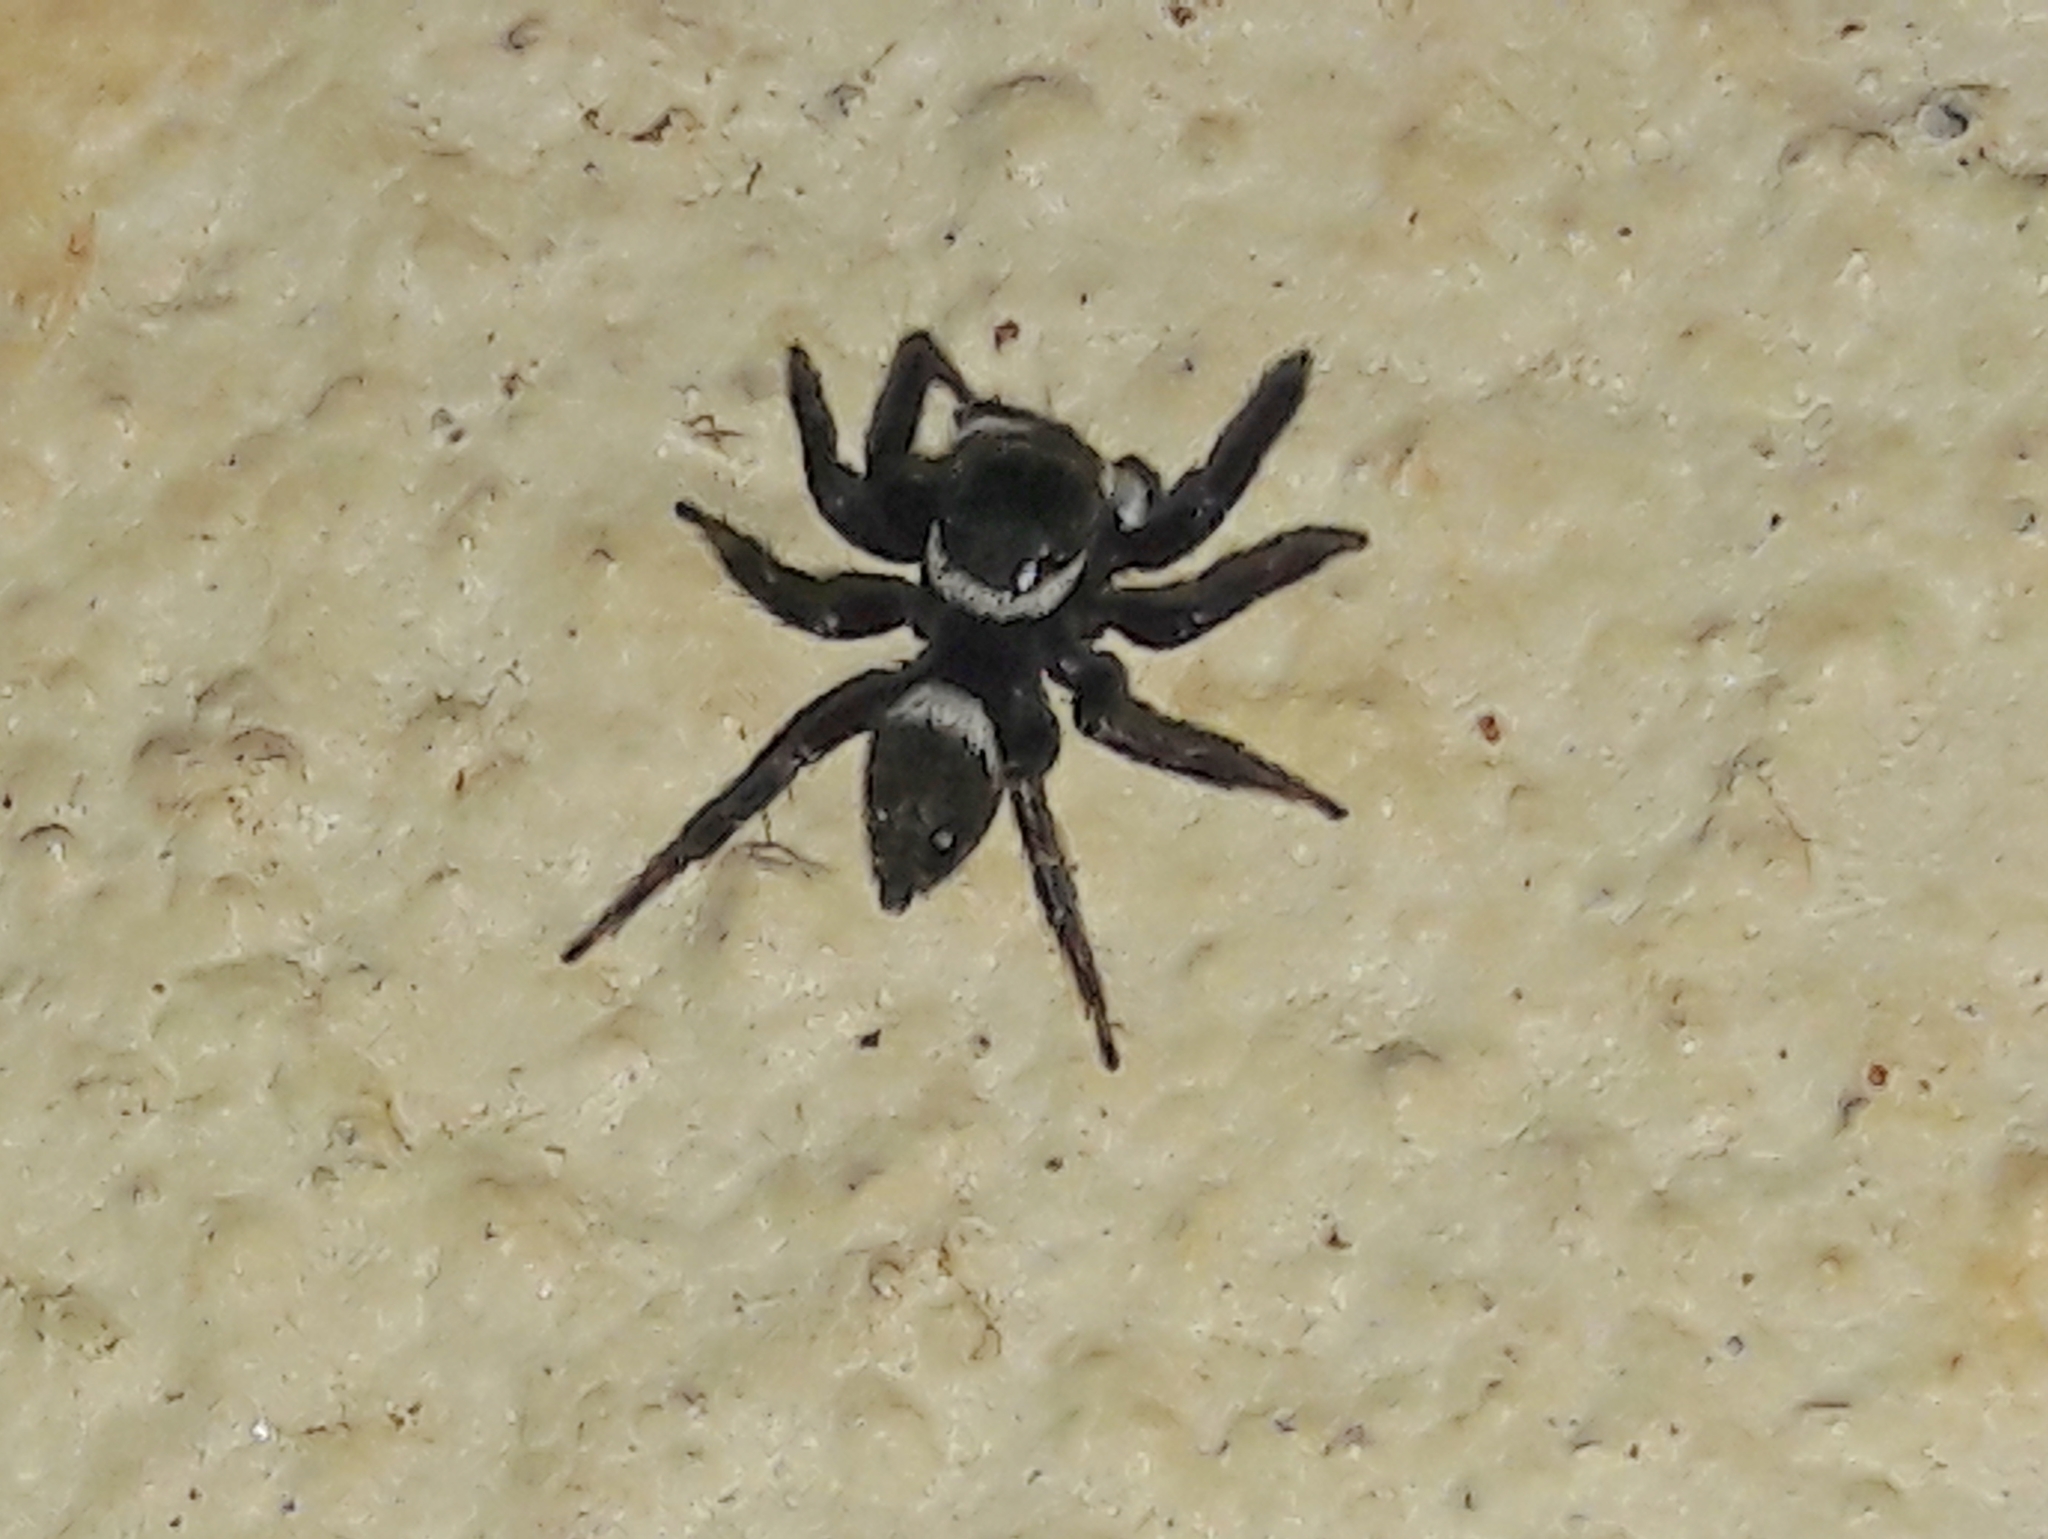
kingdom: Animalia
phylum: Arthropoda
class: Arachnida
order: Araneae
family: Salticidae
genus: Hasarius
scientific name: Hasarius adansoni
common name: Jumping spider
